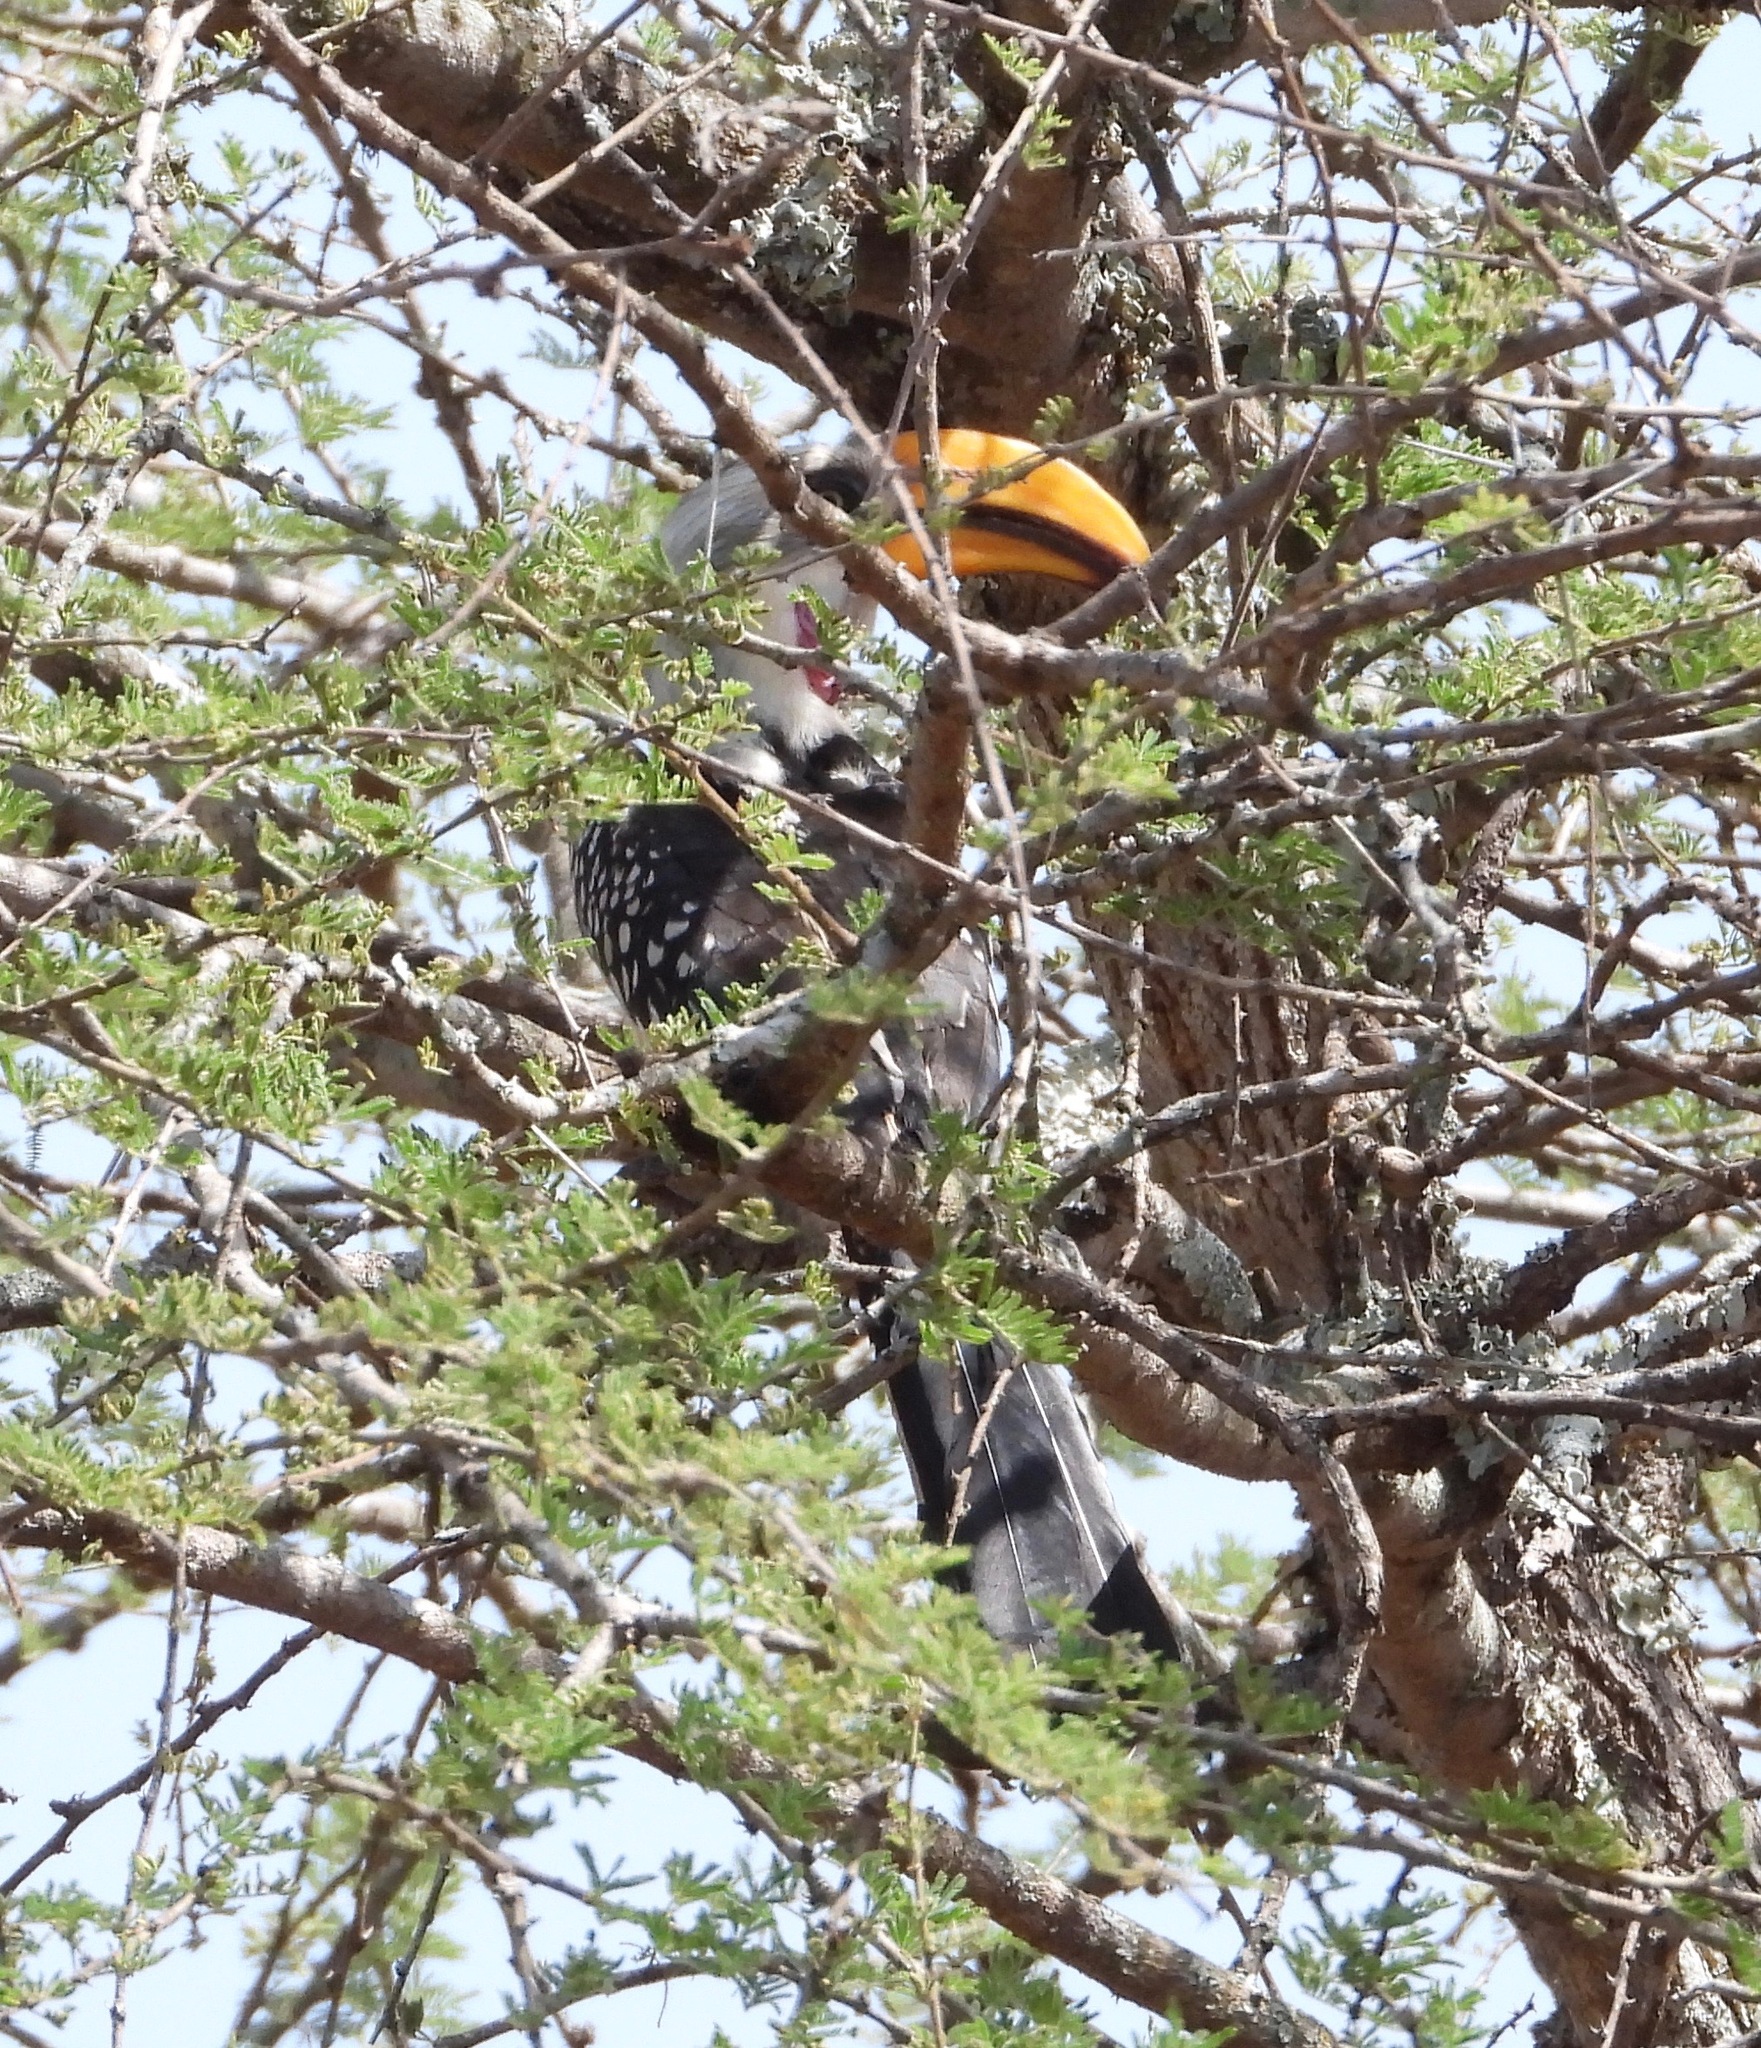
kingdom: Animalia
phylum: Chordata
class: Aves
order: Bucerotiformes
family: Bucerotidae
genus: Tockus
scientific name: Tockus flavirostris
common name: Eastern yellow-billed hornbill
